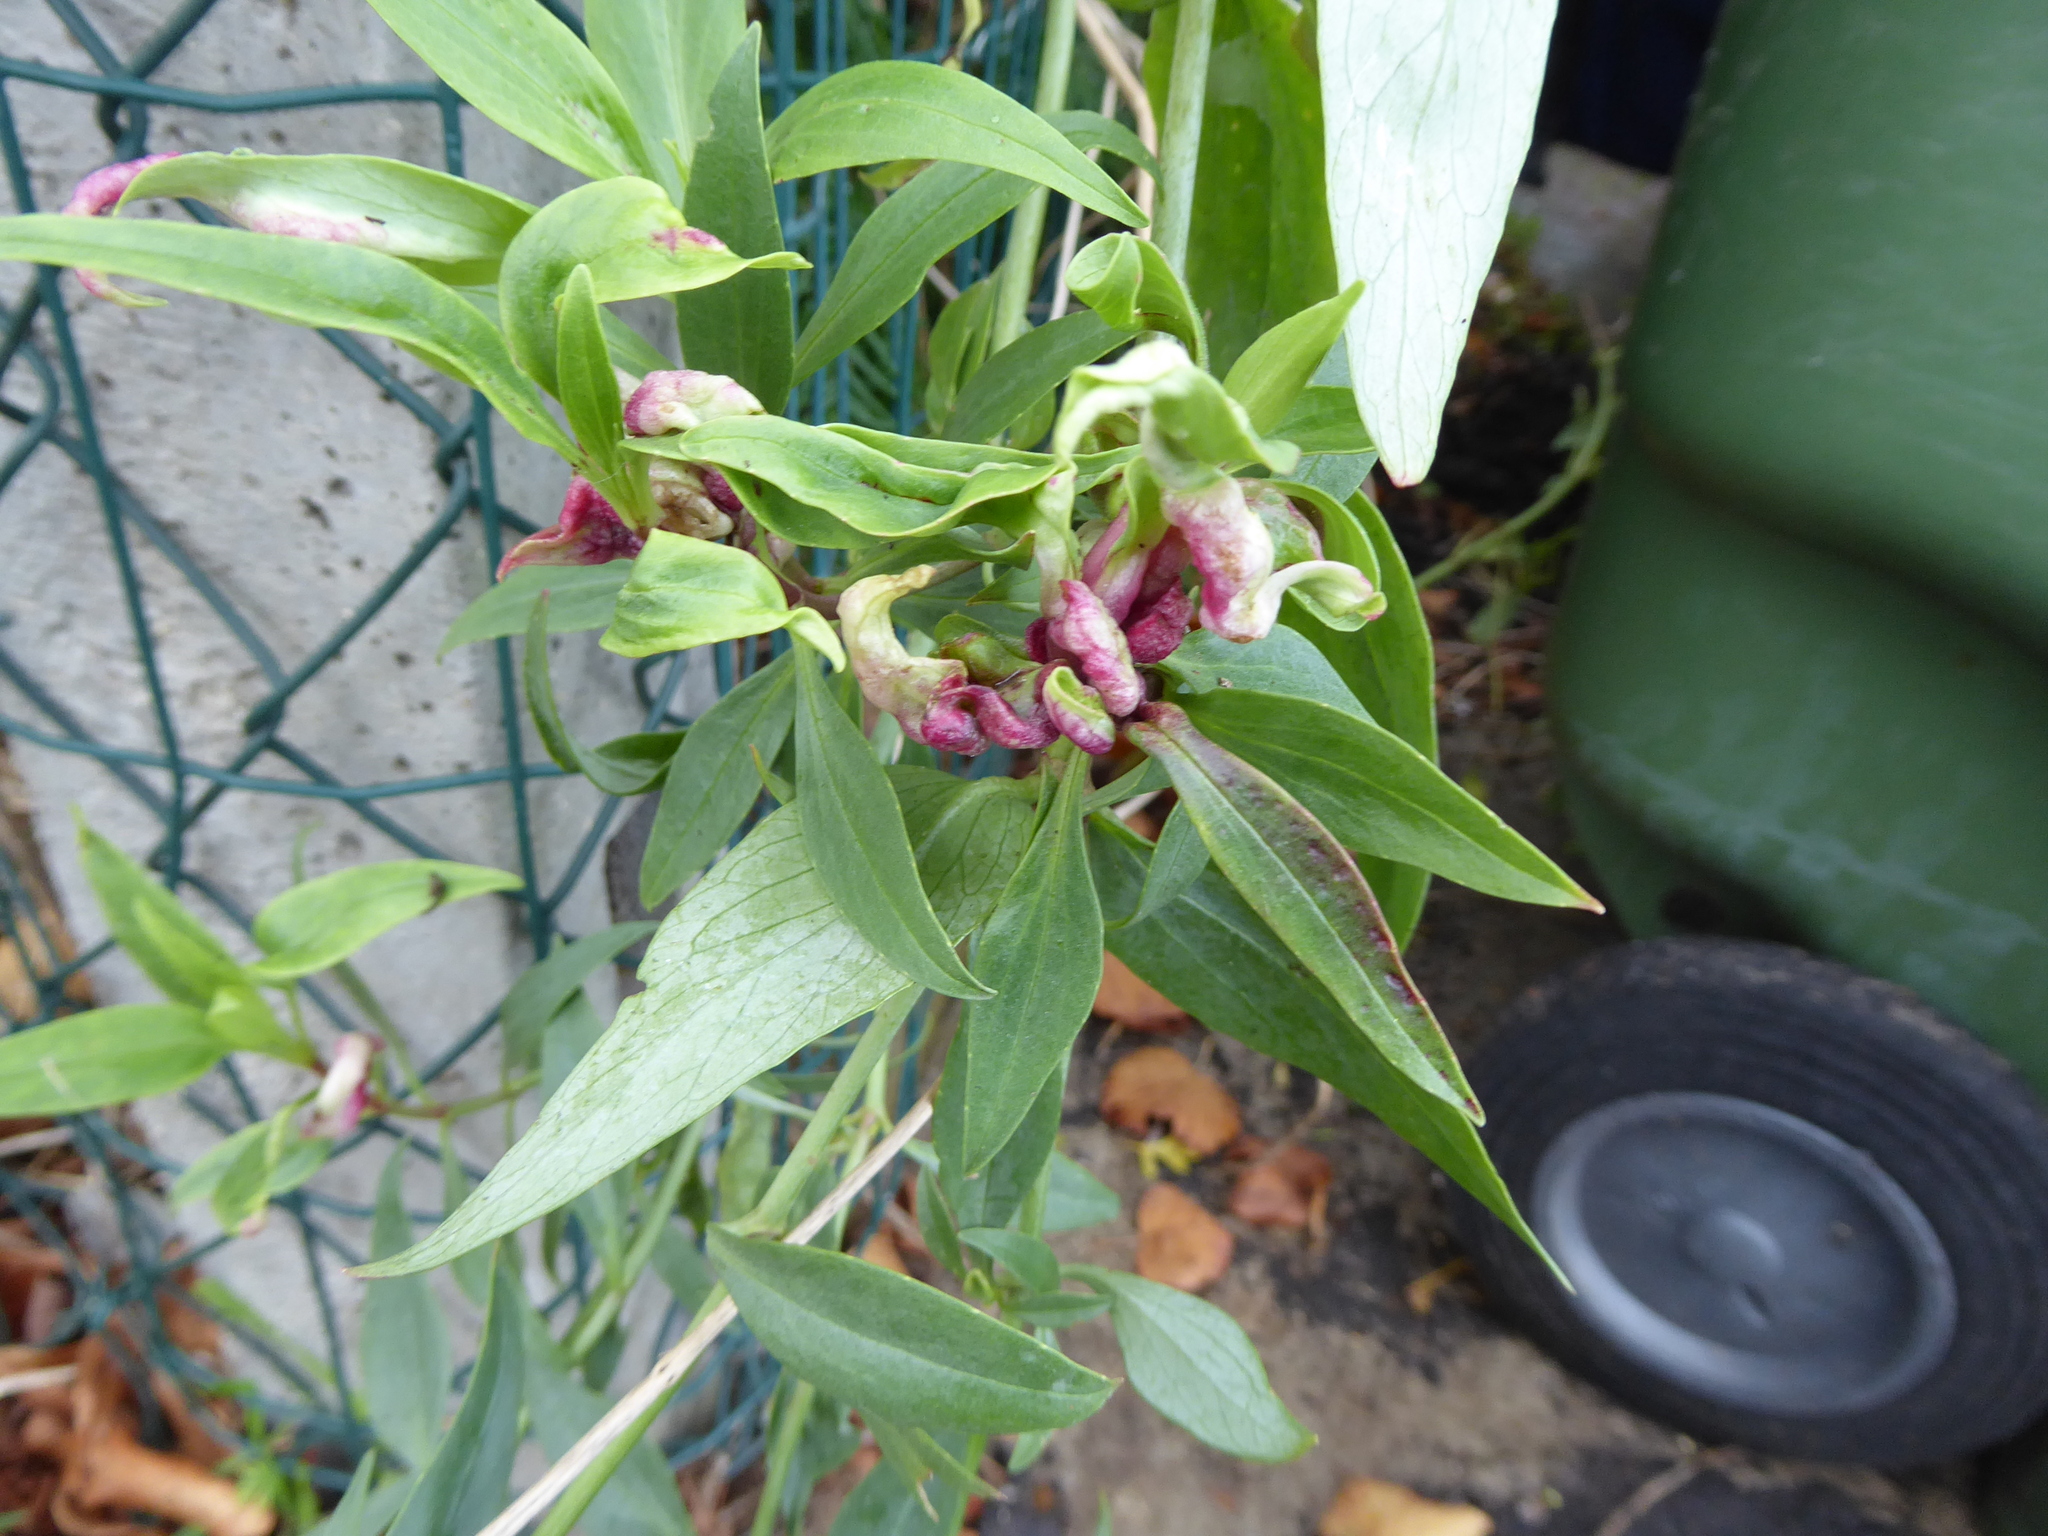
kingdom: Animalia
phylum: Arthropoda
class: Insecta
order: Hemiptera
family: Triozidae
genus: Trioza
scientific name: Trioza centranthi
